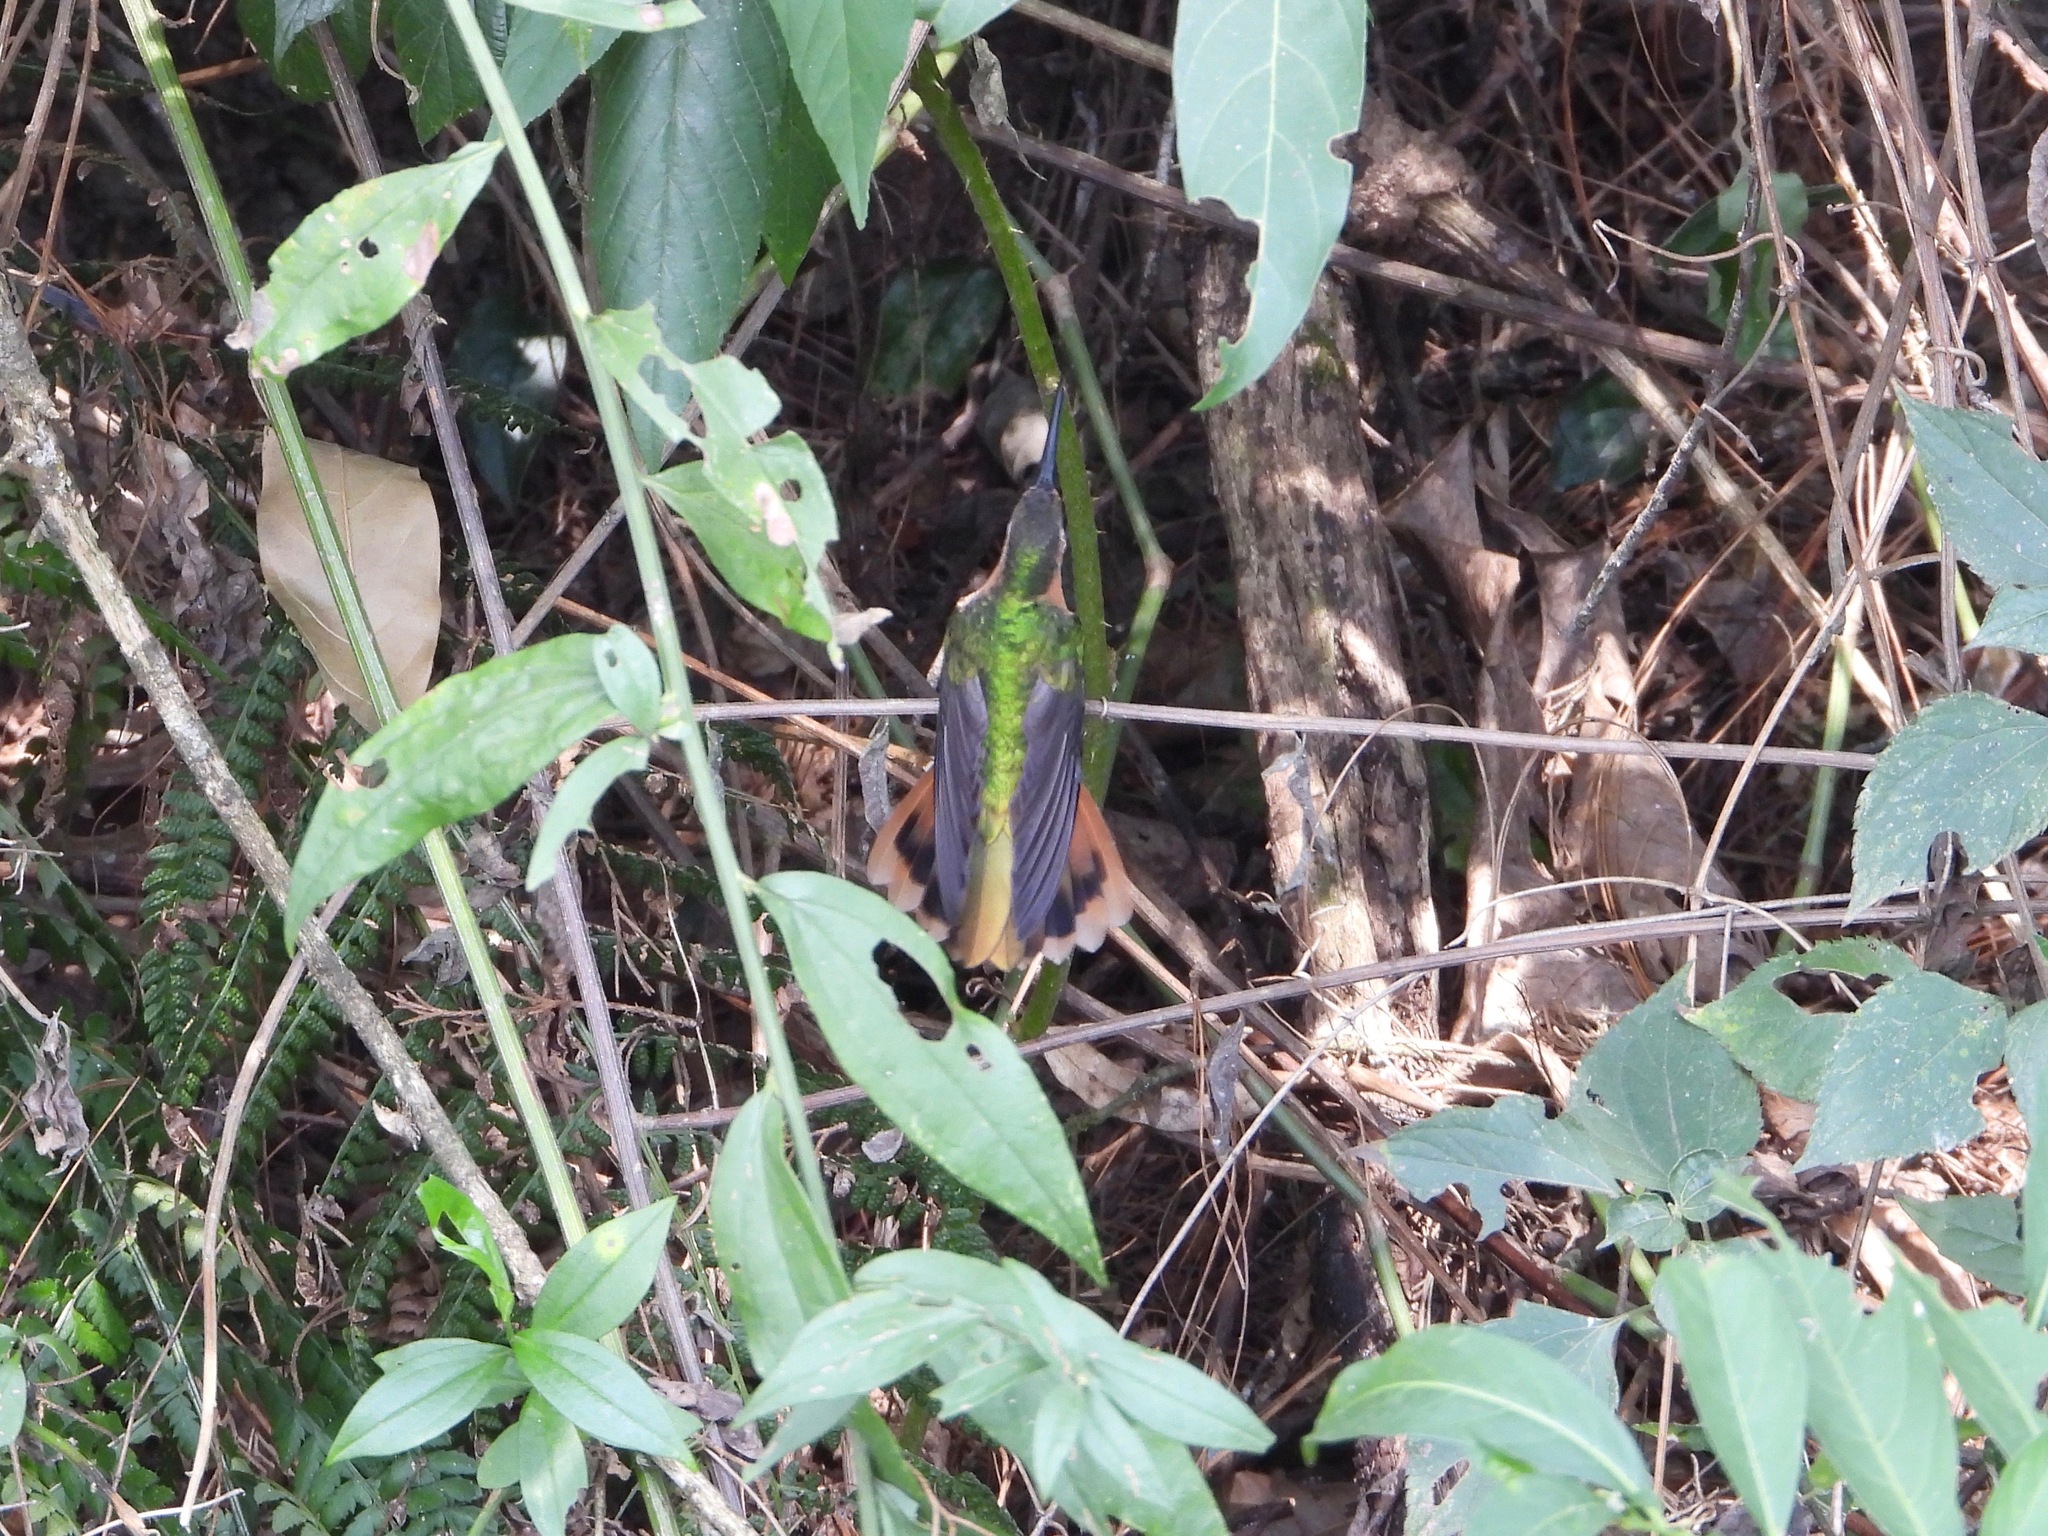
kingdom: Animalia
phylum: Chordata
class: Aves
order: Apodiformes
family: Trochilidae
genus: Pampa
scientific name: Pampa rufa
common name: Rufous sabrewing
